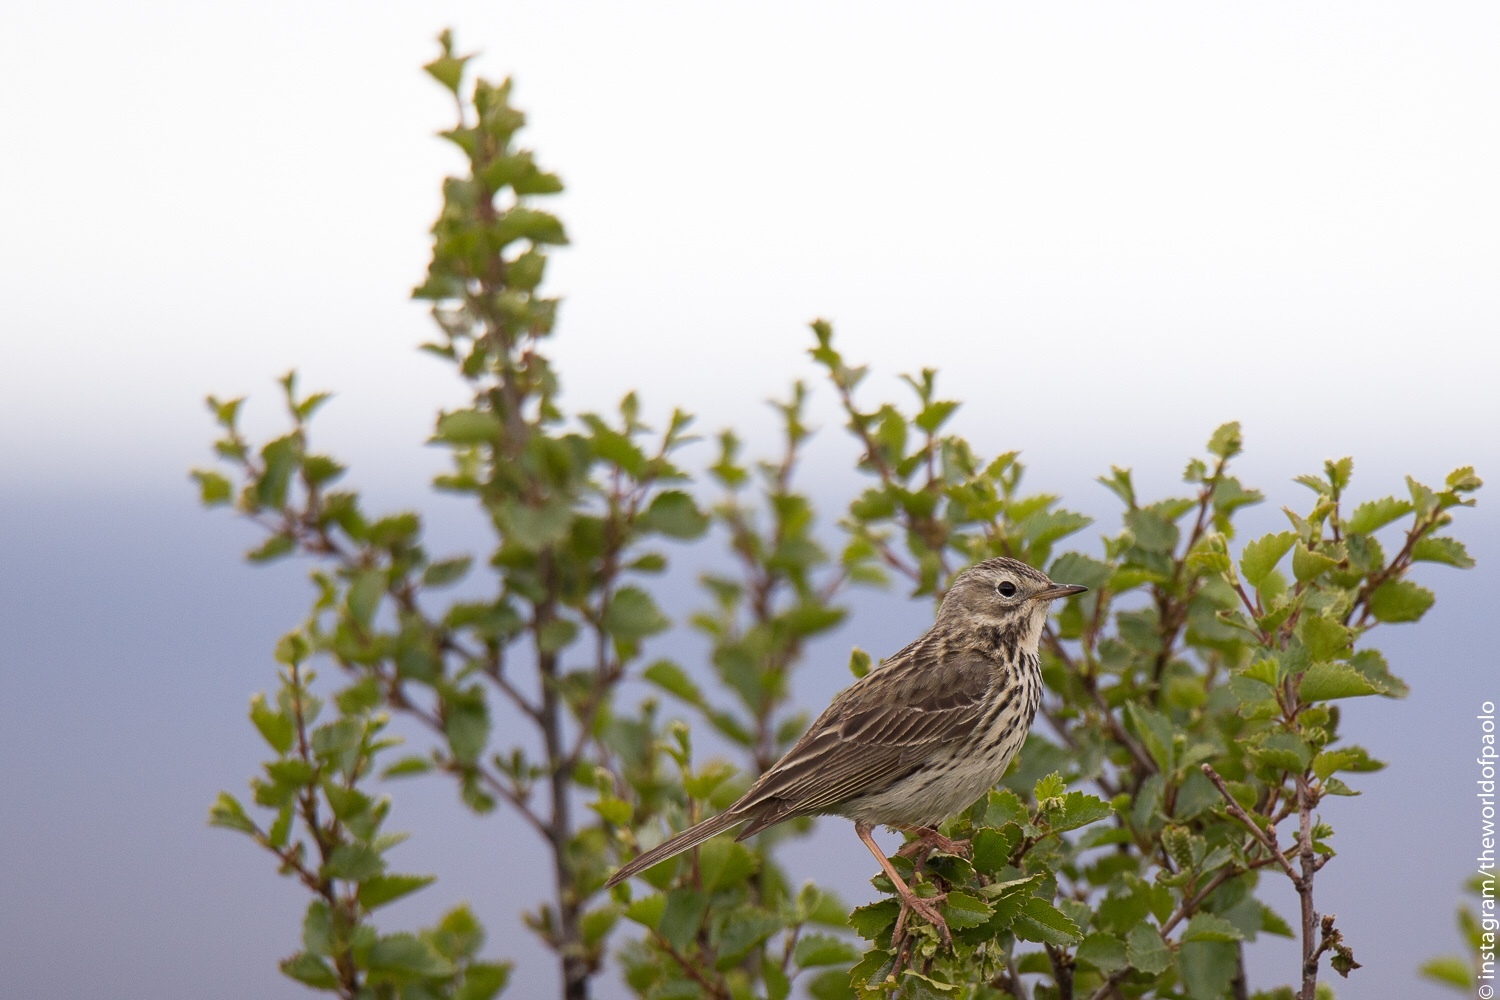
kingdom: Animalia
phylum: Chordata
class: Aves
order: Passeriformes
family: Motacillidae
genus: Anthus
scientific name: Anthus pratensis
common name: Meadow pipit
